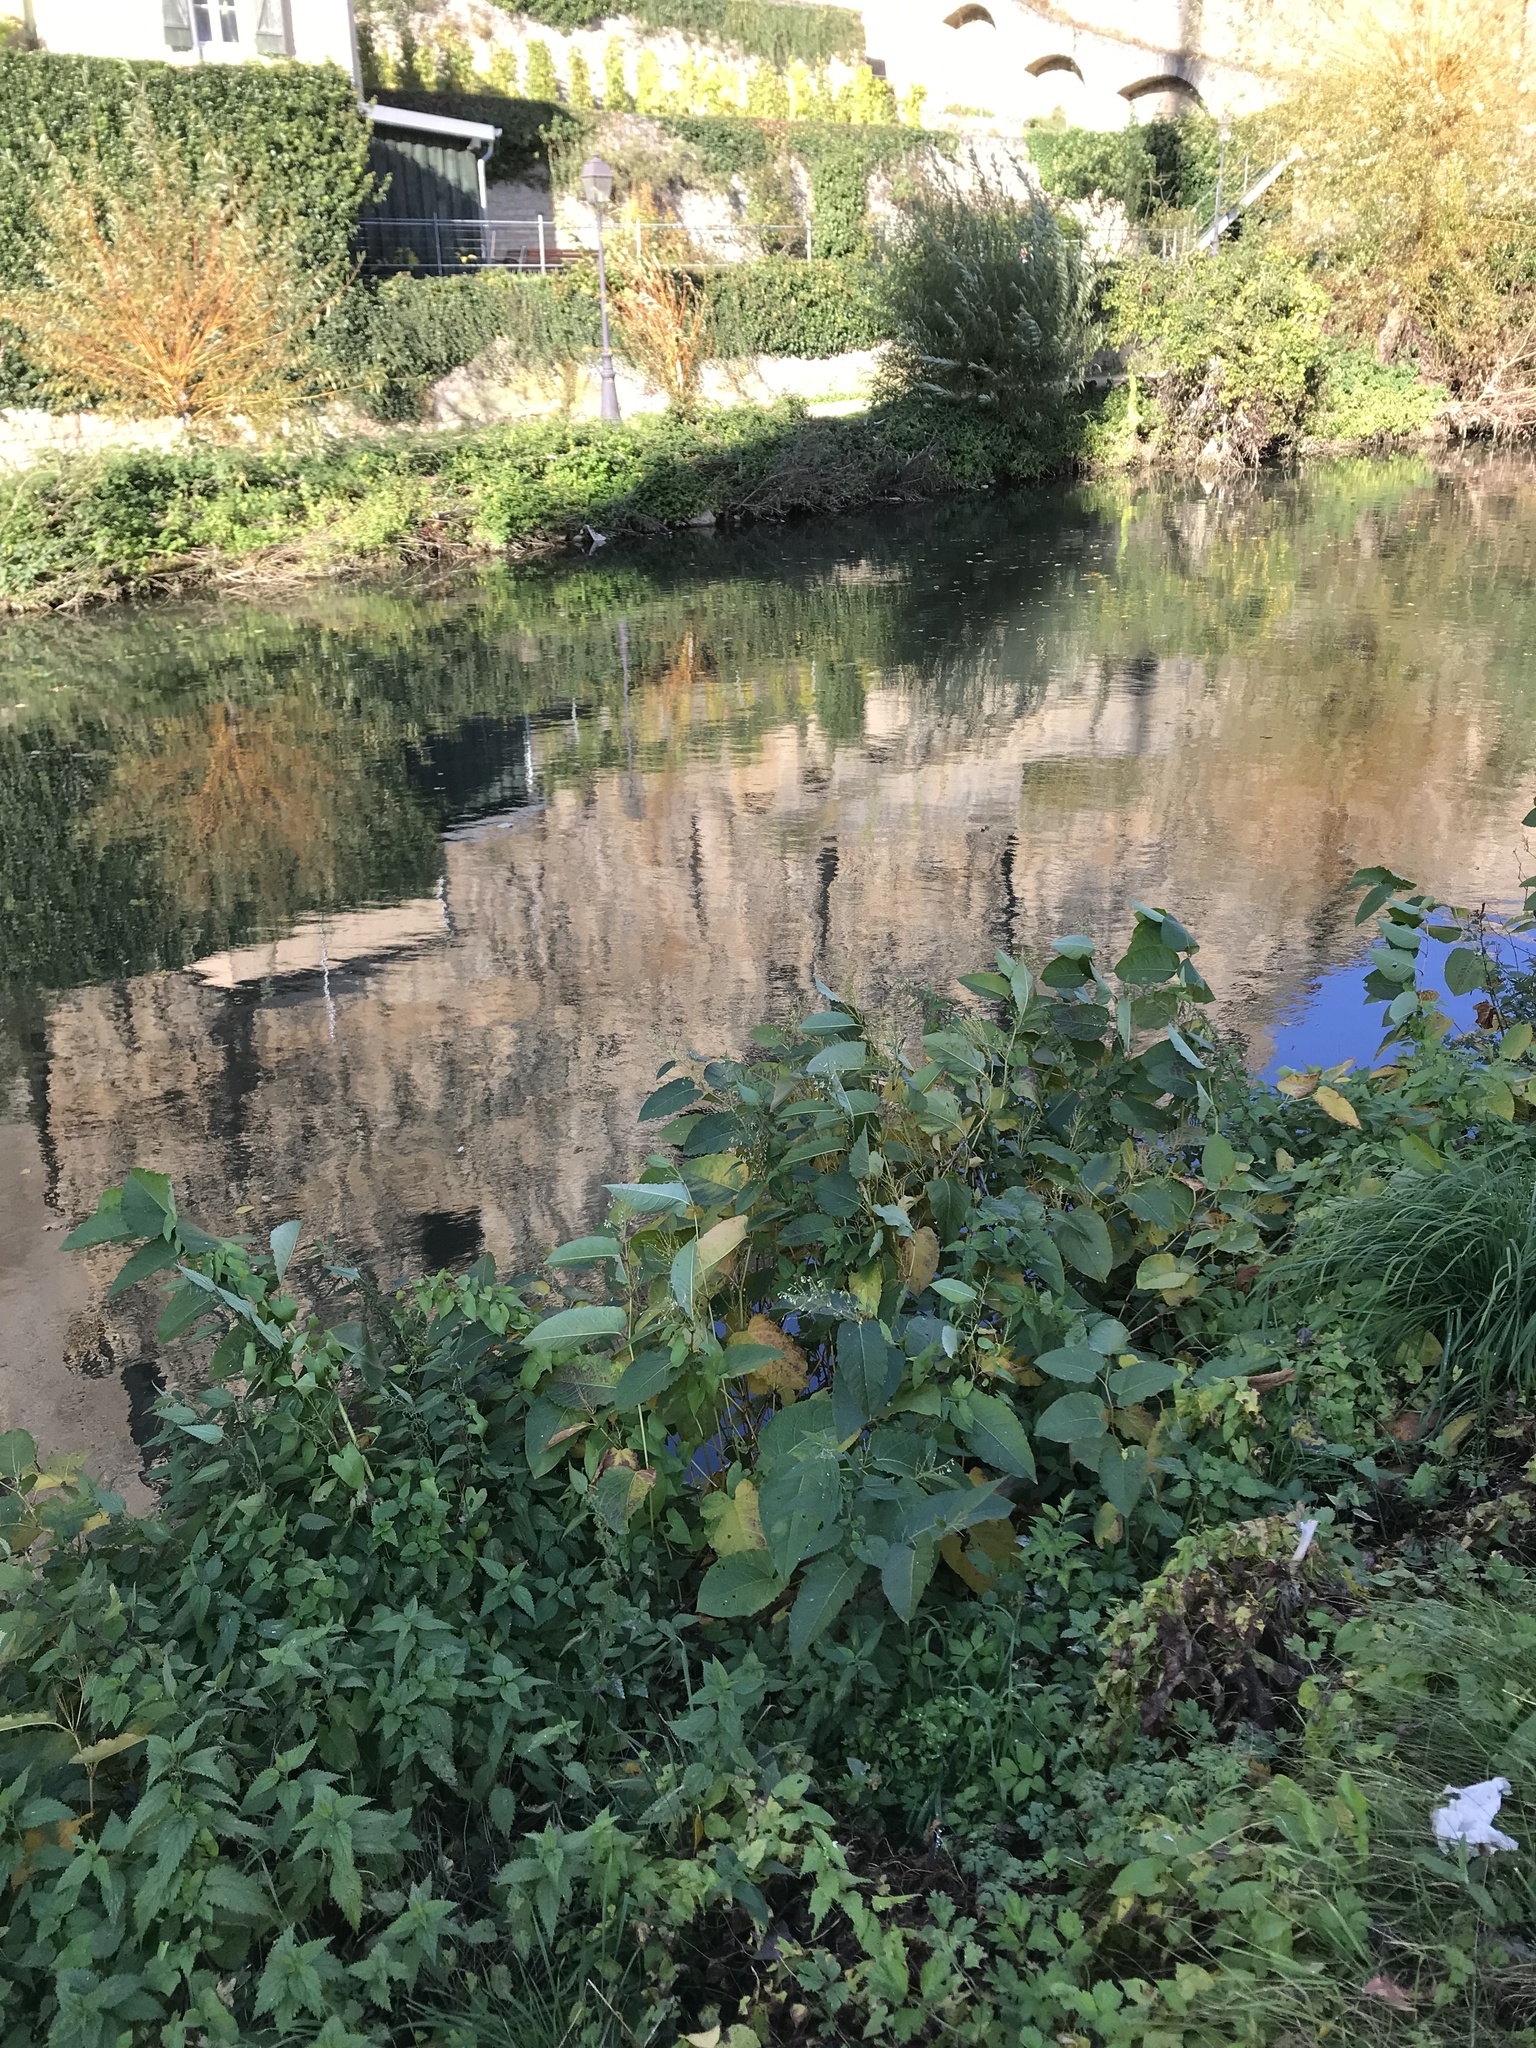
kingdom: Plantae
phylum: Tracheophyta
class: Magnoliopsida
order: Caryophyllales
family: Polygonaceae
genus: Reynoutria
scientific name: Reynoutria sachalinensis
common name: Giant knotweed
